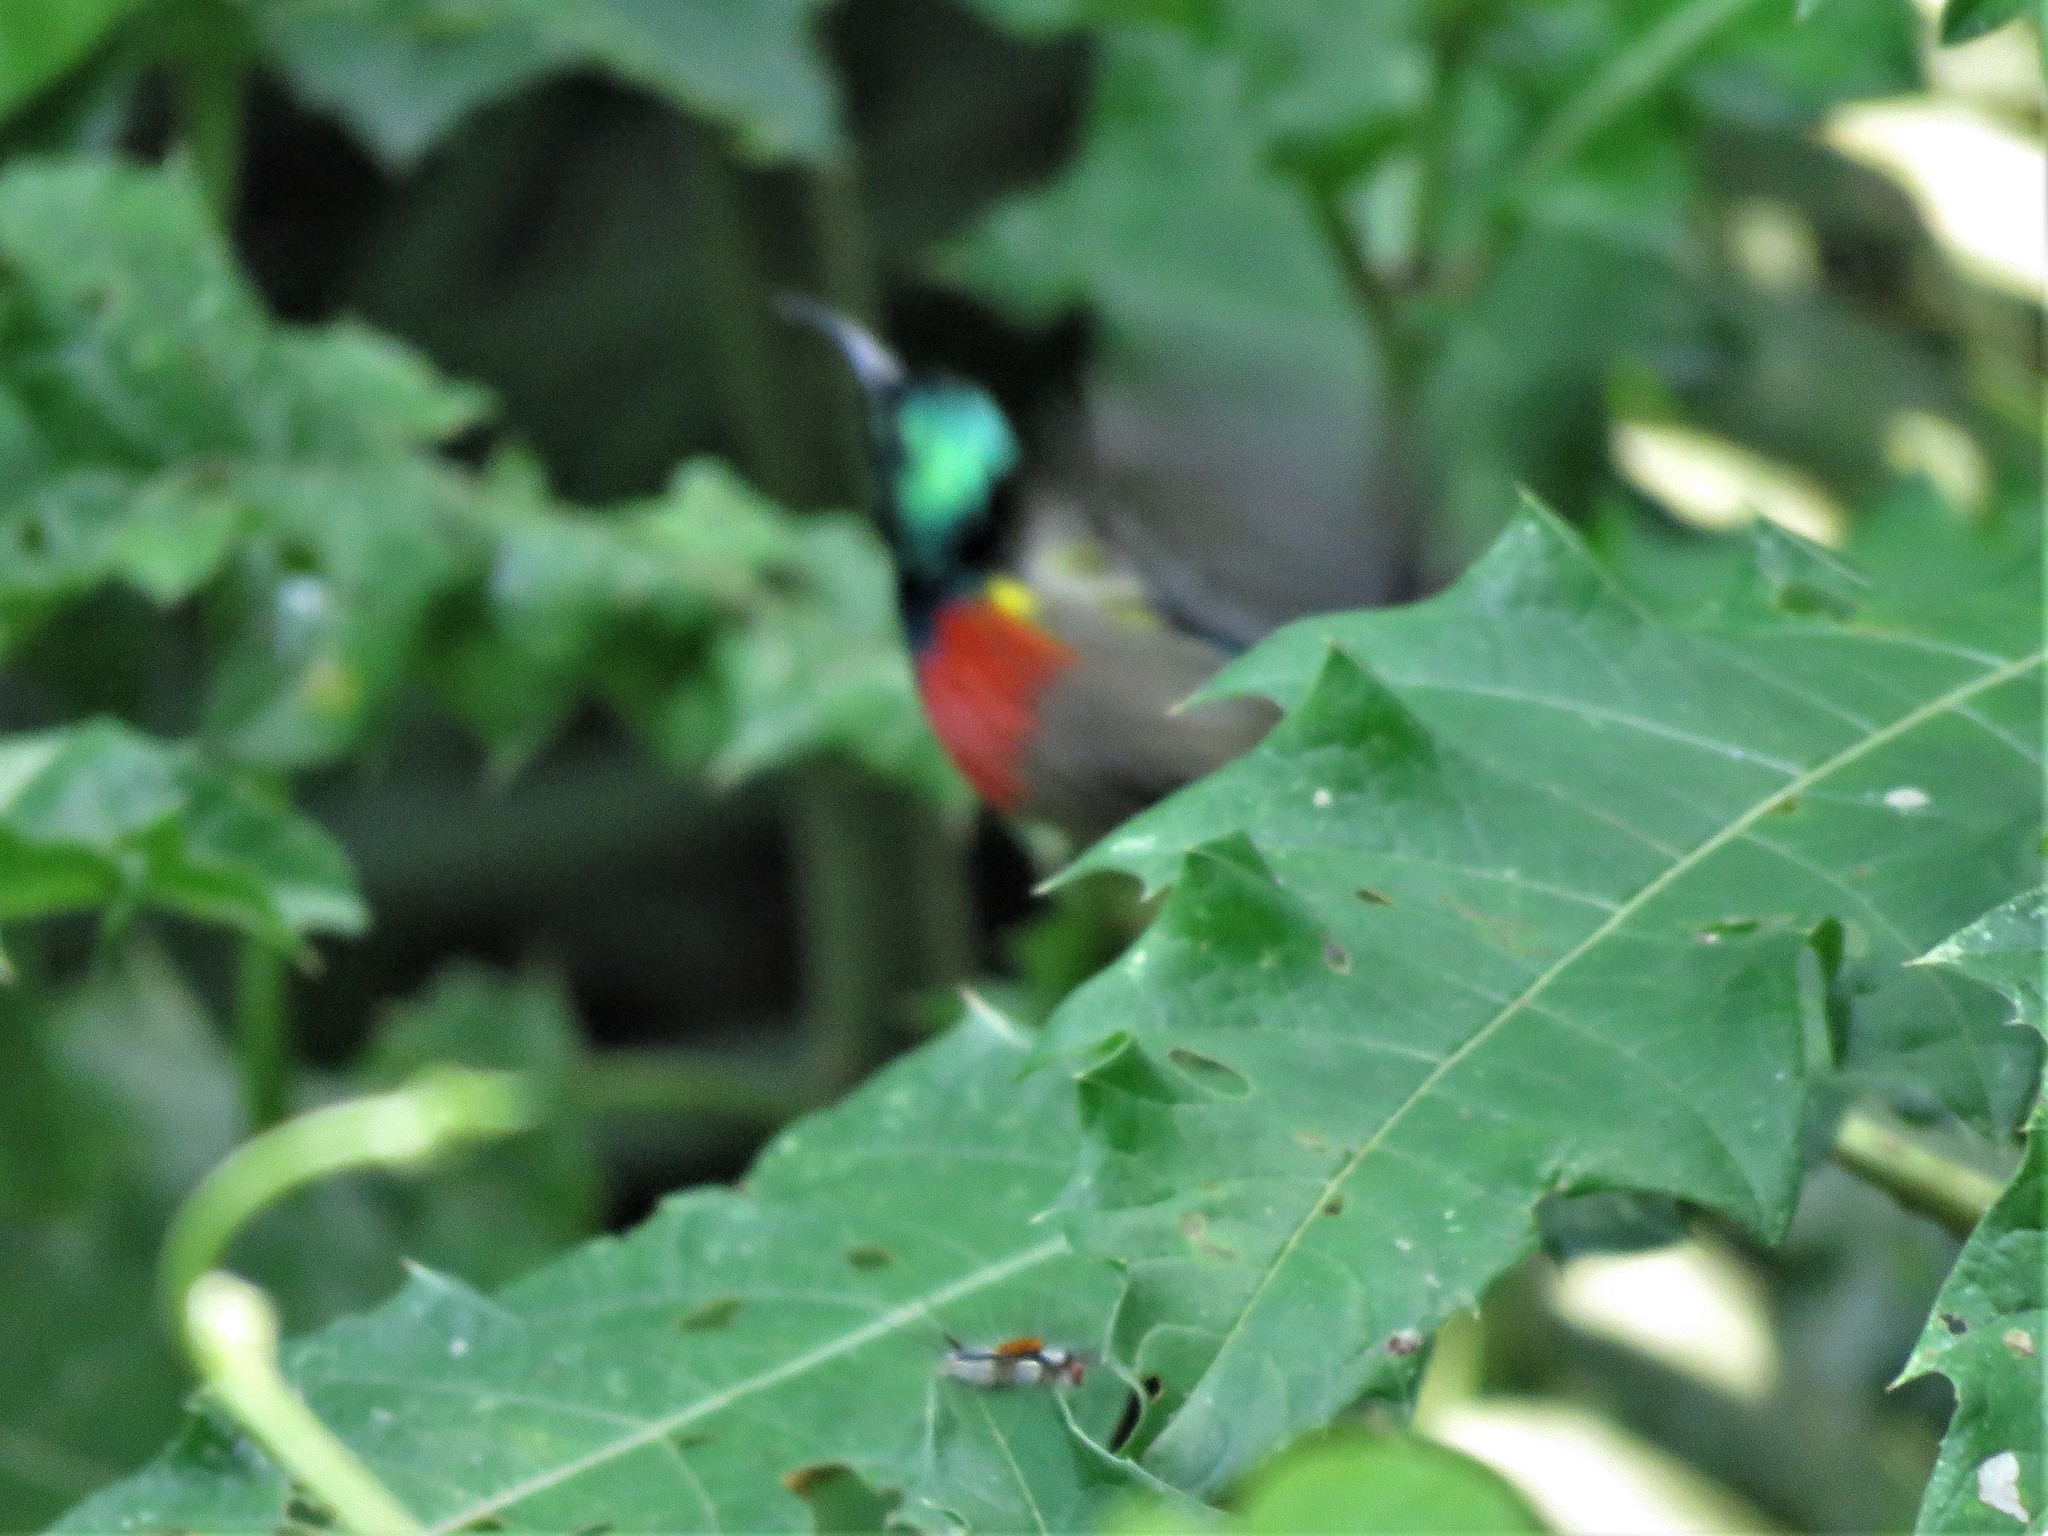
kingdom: Animalia
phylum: Chordata
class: Aves
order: Passeriformes
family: Nectariniidae
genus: Cinnyris
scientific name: Cinnyris chloropygius
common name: Olive-bellied sunbird
